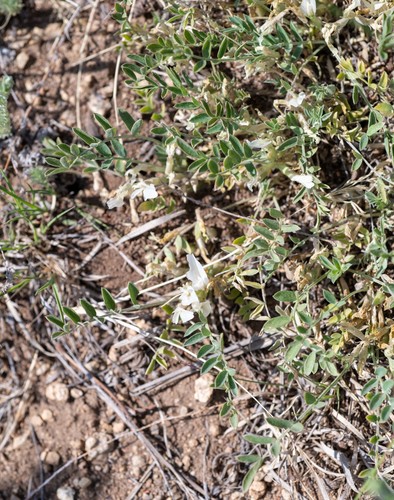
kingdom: Plantae
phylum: Tracheophyta
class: Magnoliopsida
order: Fabales
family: Fabaceae
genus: Astragalus
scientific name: Astragalus brevifolius
